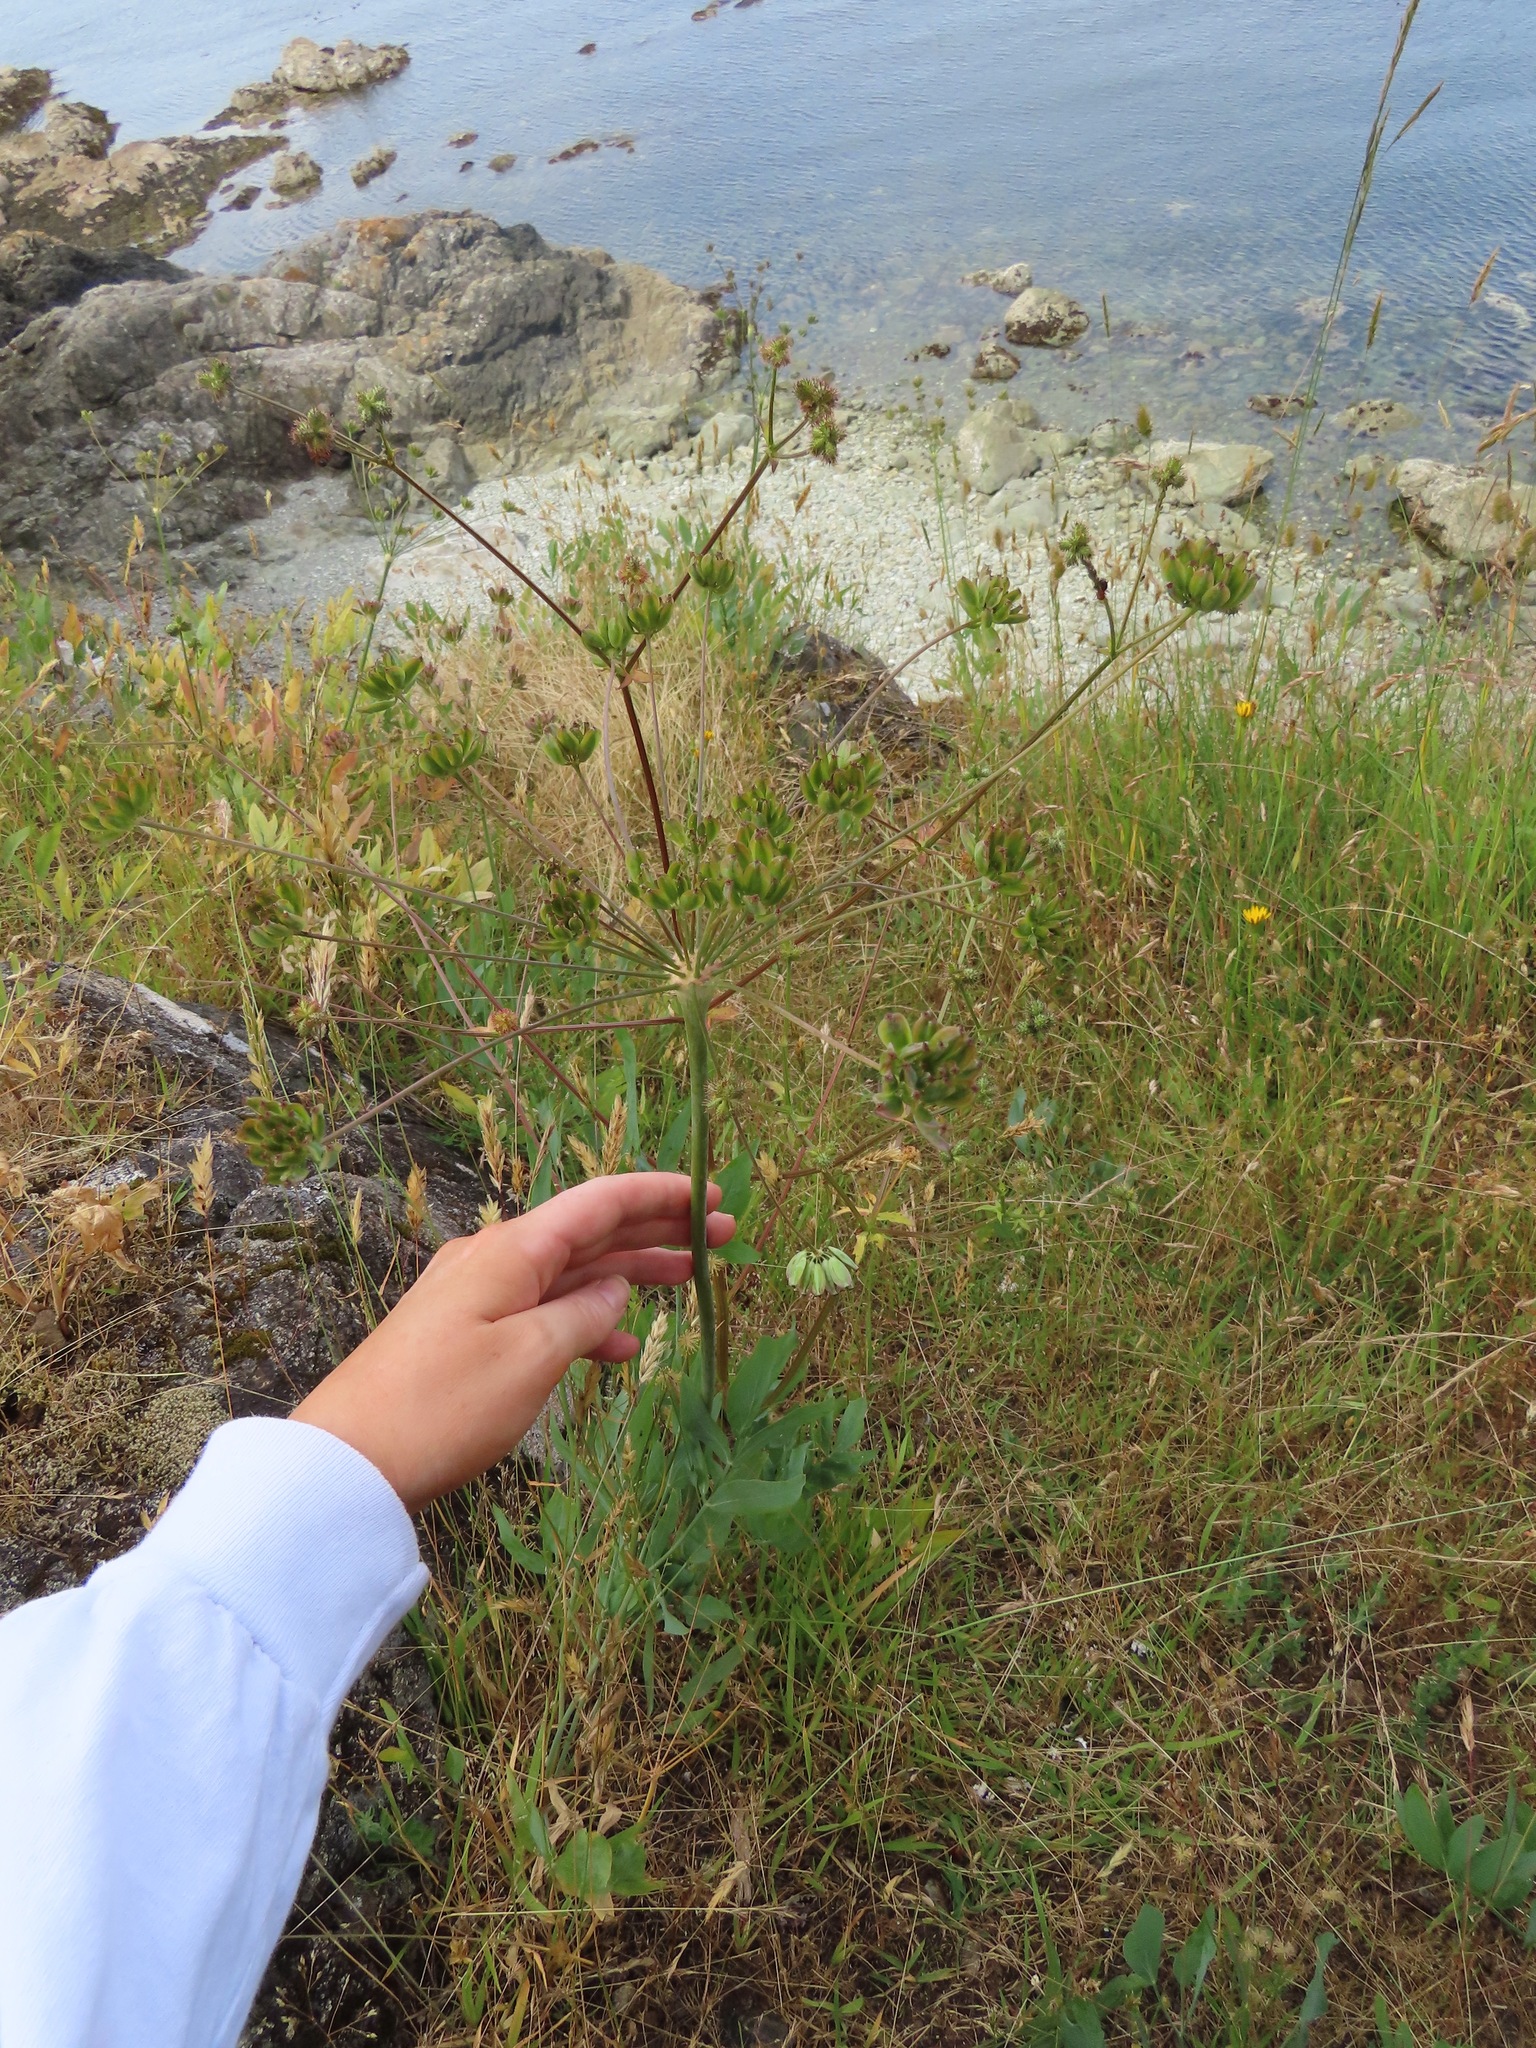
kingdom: Plantae
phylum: Tracheophyta
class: Magnoliopsida
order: Apiales
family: Apiaceae
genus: Lomatium
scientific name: Lomatium nudicaule
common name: Pestle lomatium
